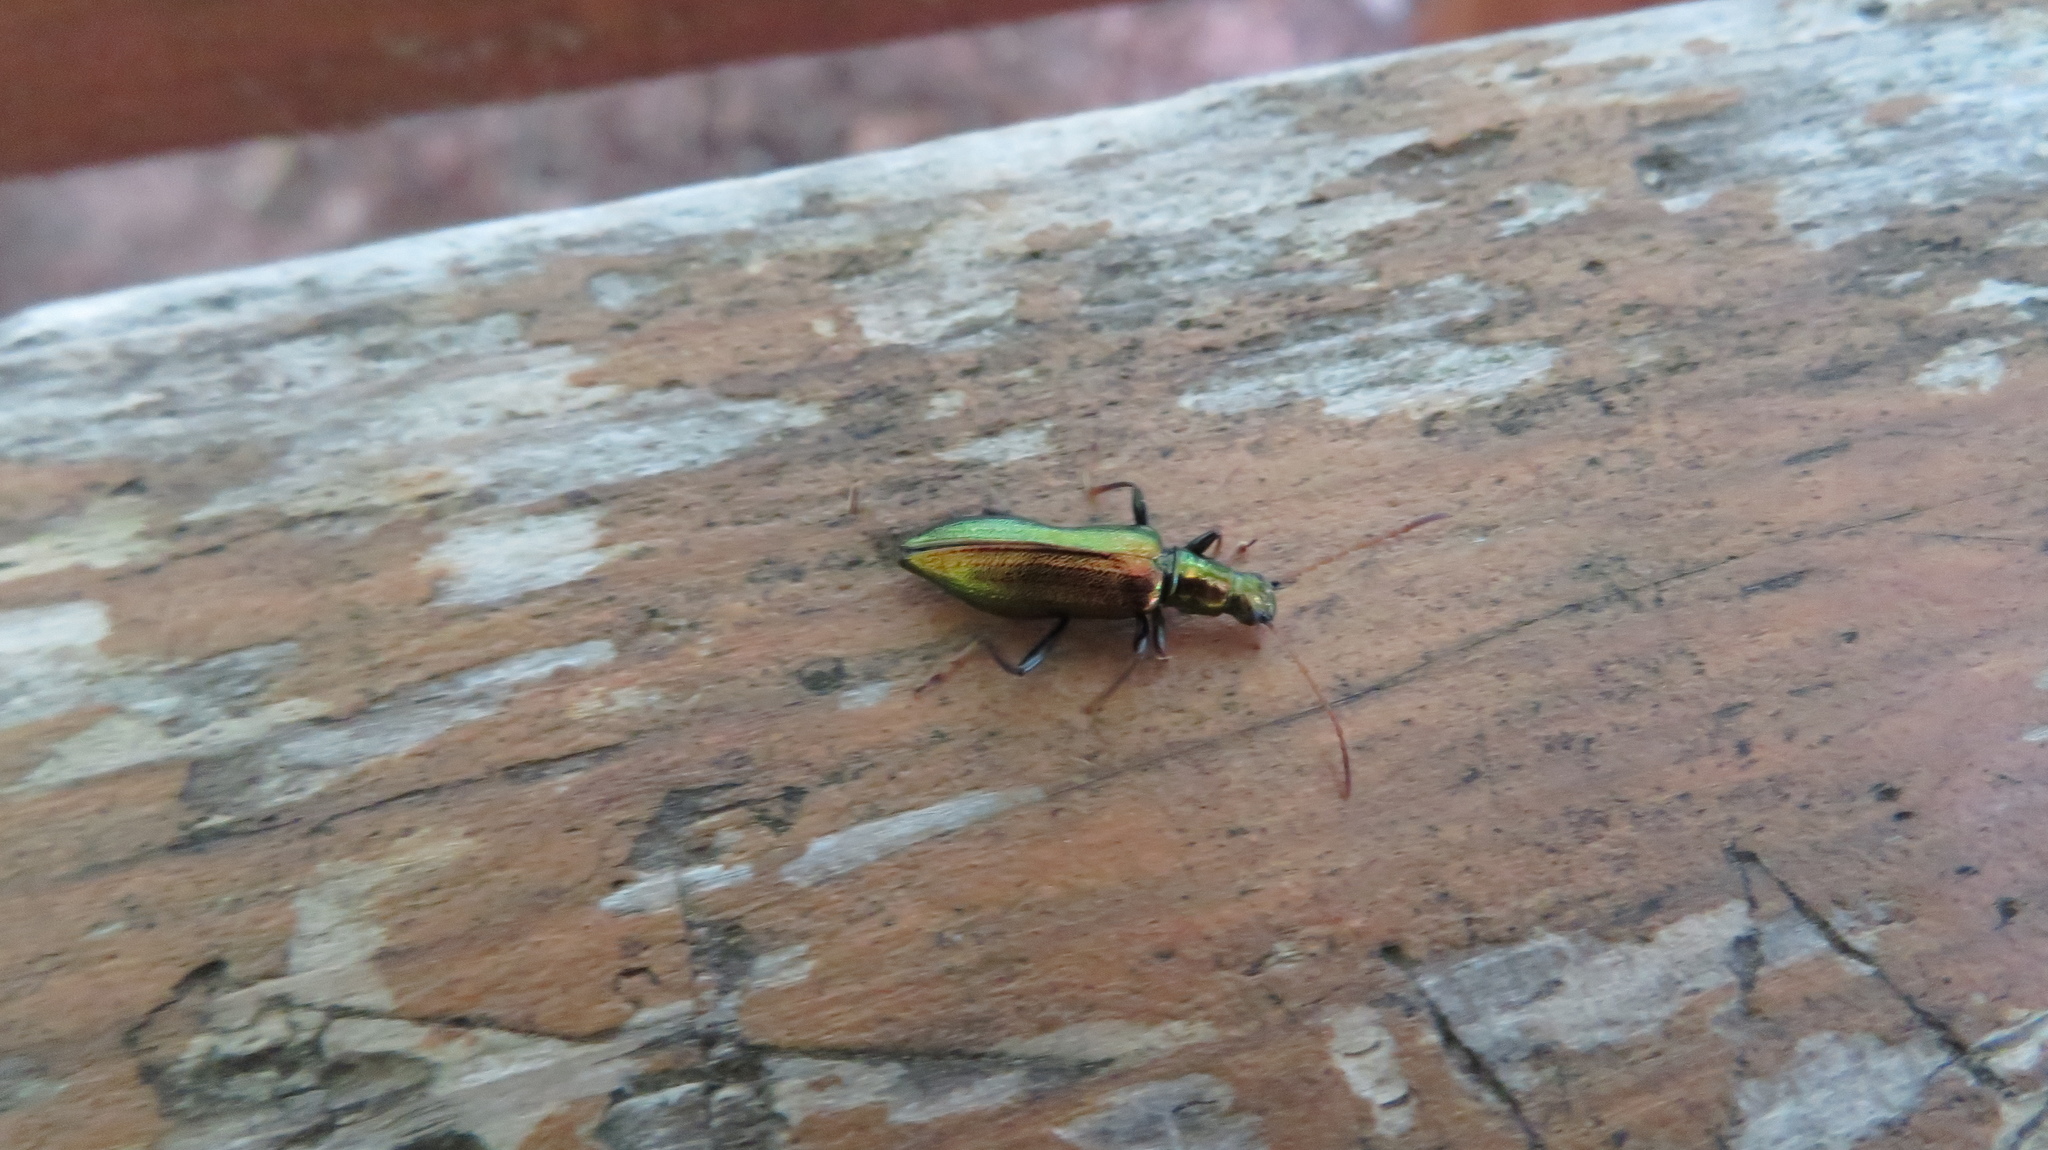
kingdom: Animalia
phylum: Arthropoda
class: Insecta
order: Coleoptera
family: Tenebrionidae
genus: Arthromacra
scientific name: Arthromacra aenea
